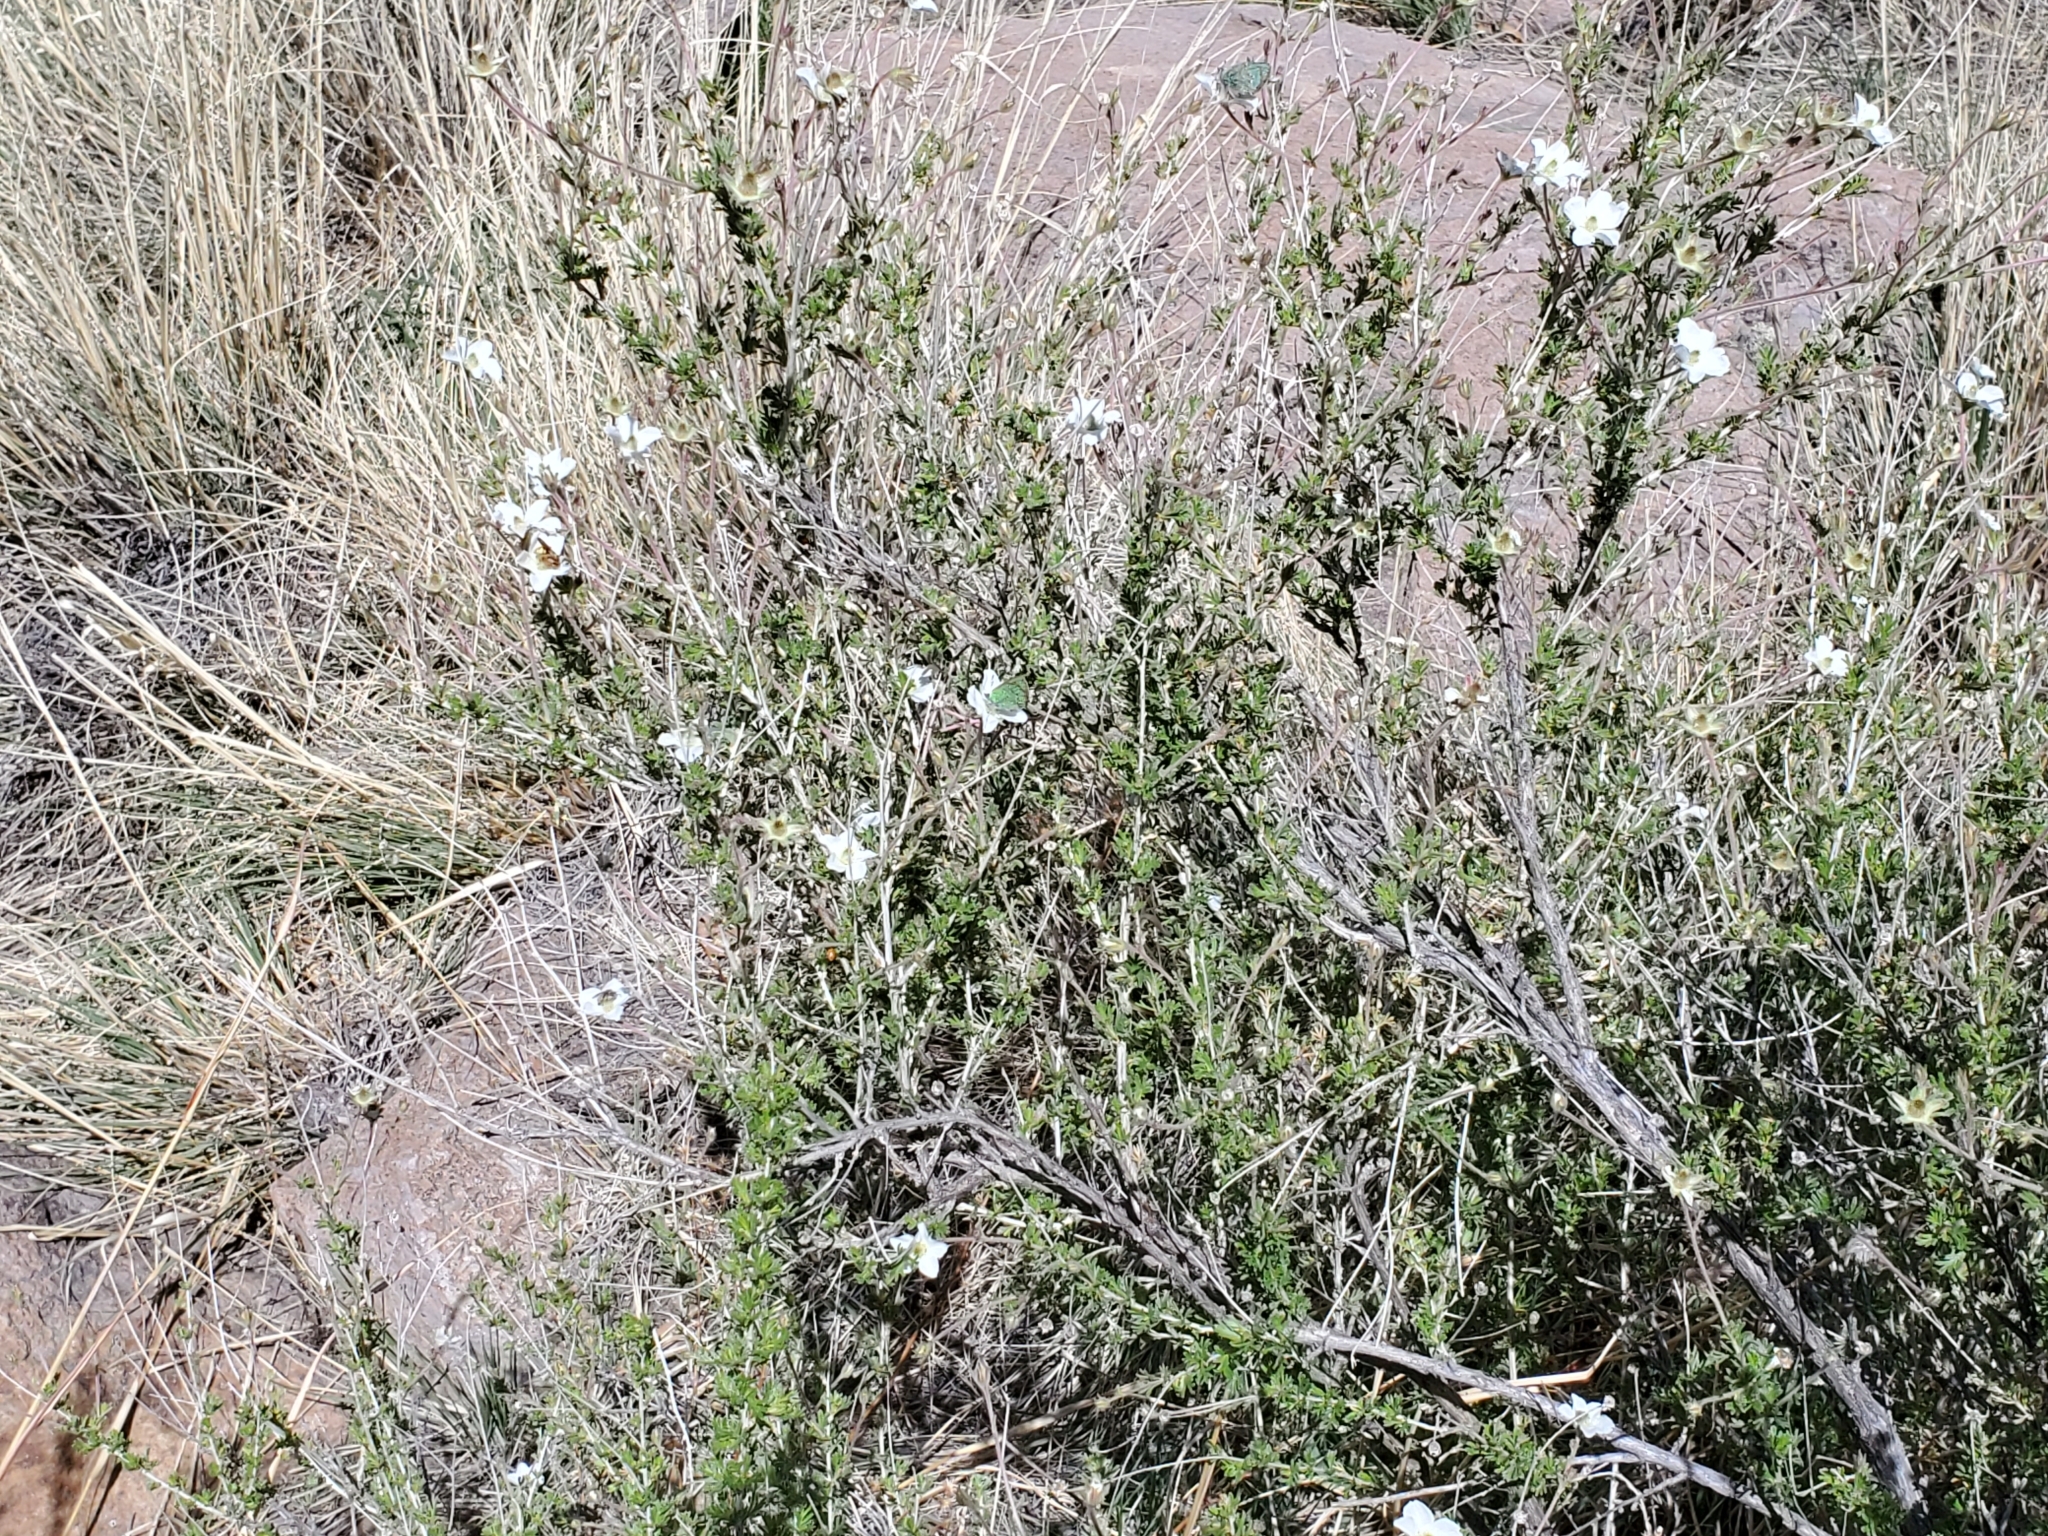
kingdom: Plantae
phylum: Tracheophyta
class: Magnoliopsida
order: Rosales
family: Rosaceae
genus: Fallugia
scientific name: Fallugia paradoxa
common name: Apache-plume
